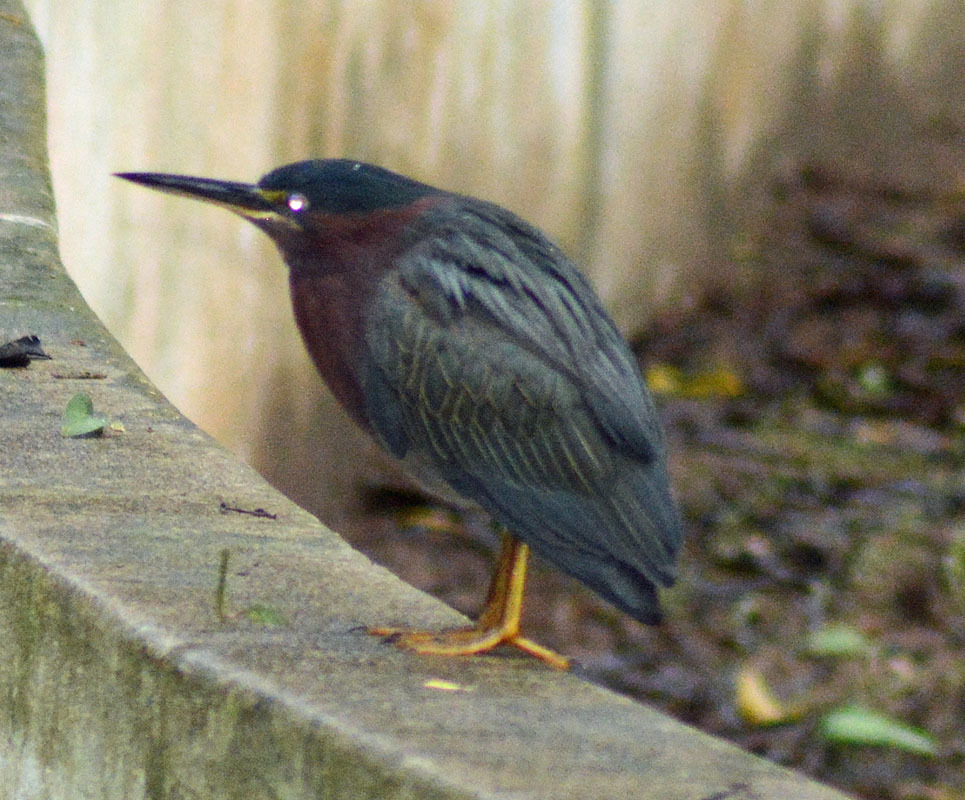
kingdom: Animalia
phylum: Chordata
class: Aves
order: Pelecaniformes
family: Ardeidae
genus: Butorides
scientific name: Butorides virescens
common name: Green heron
